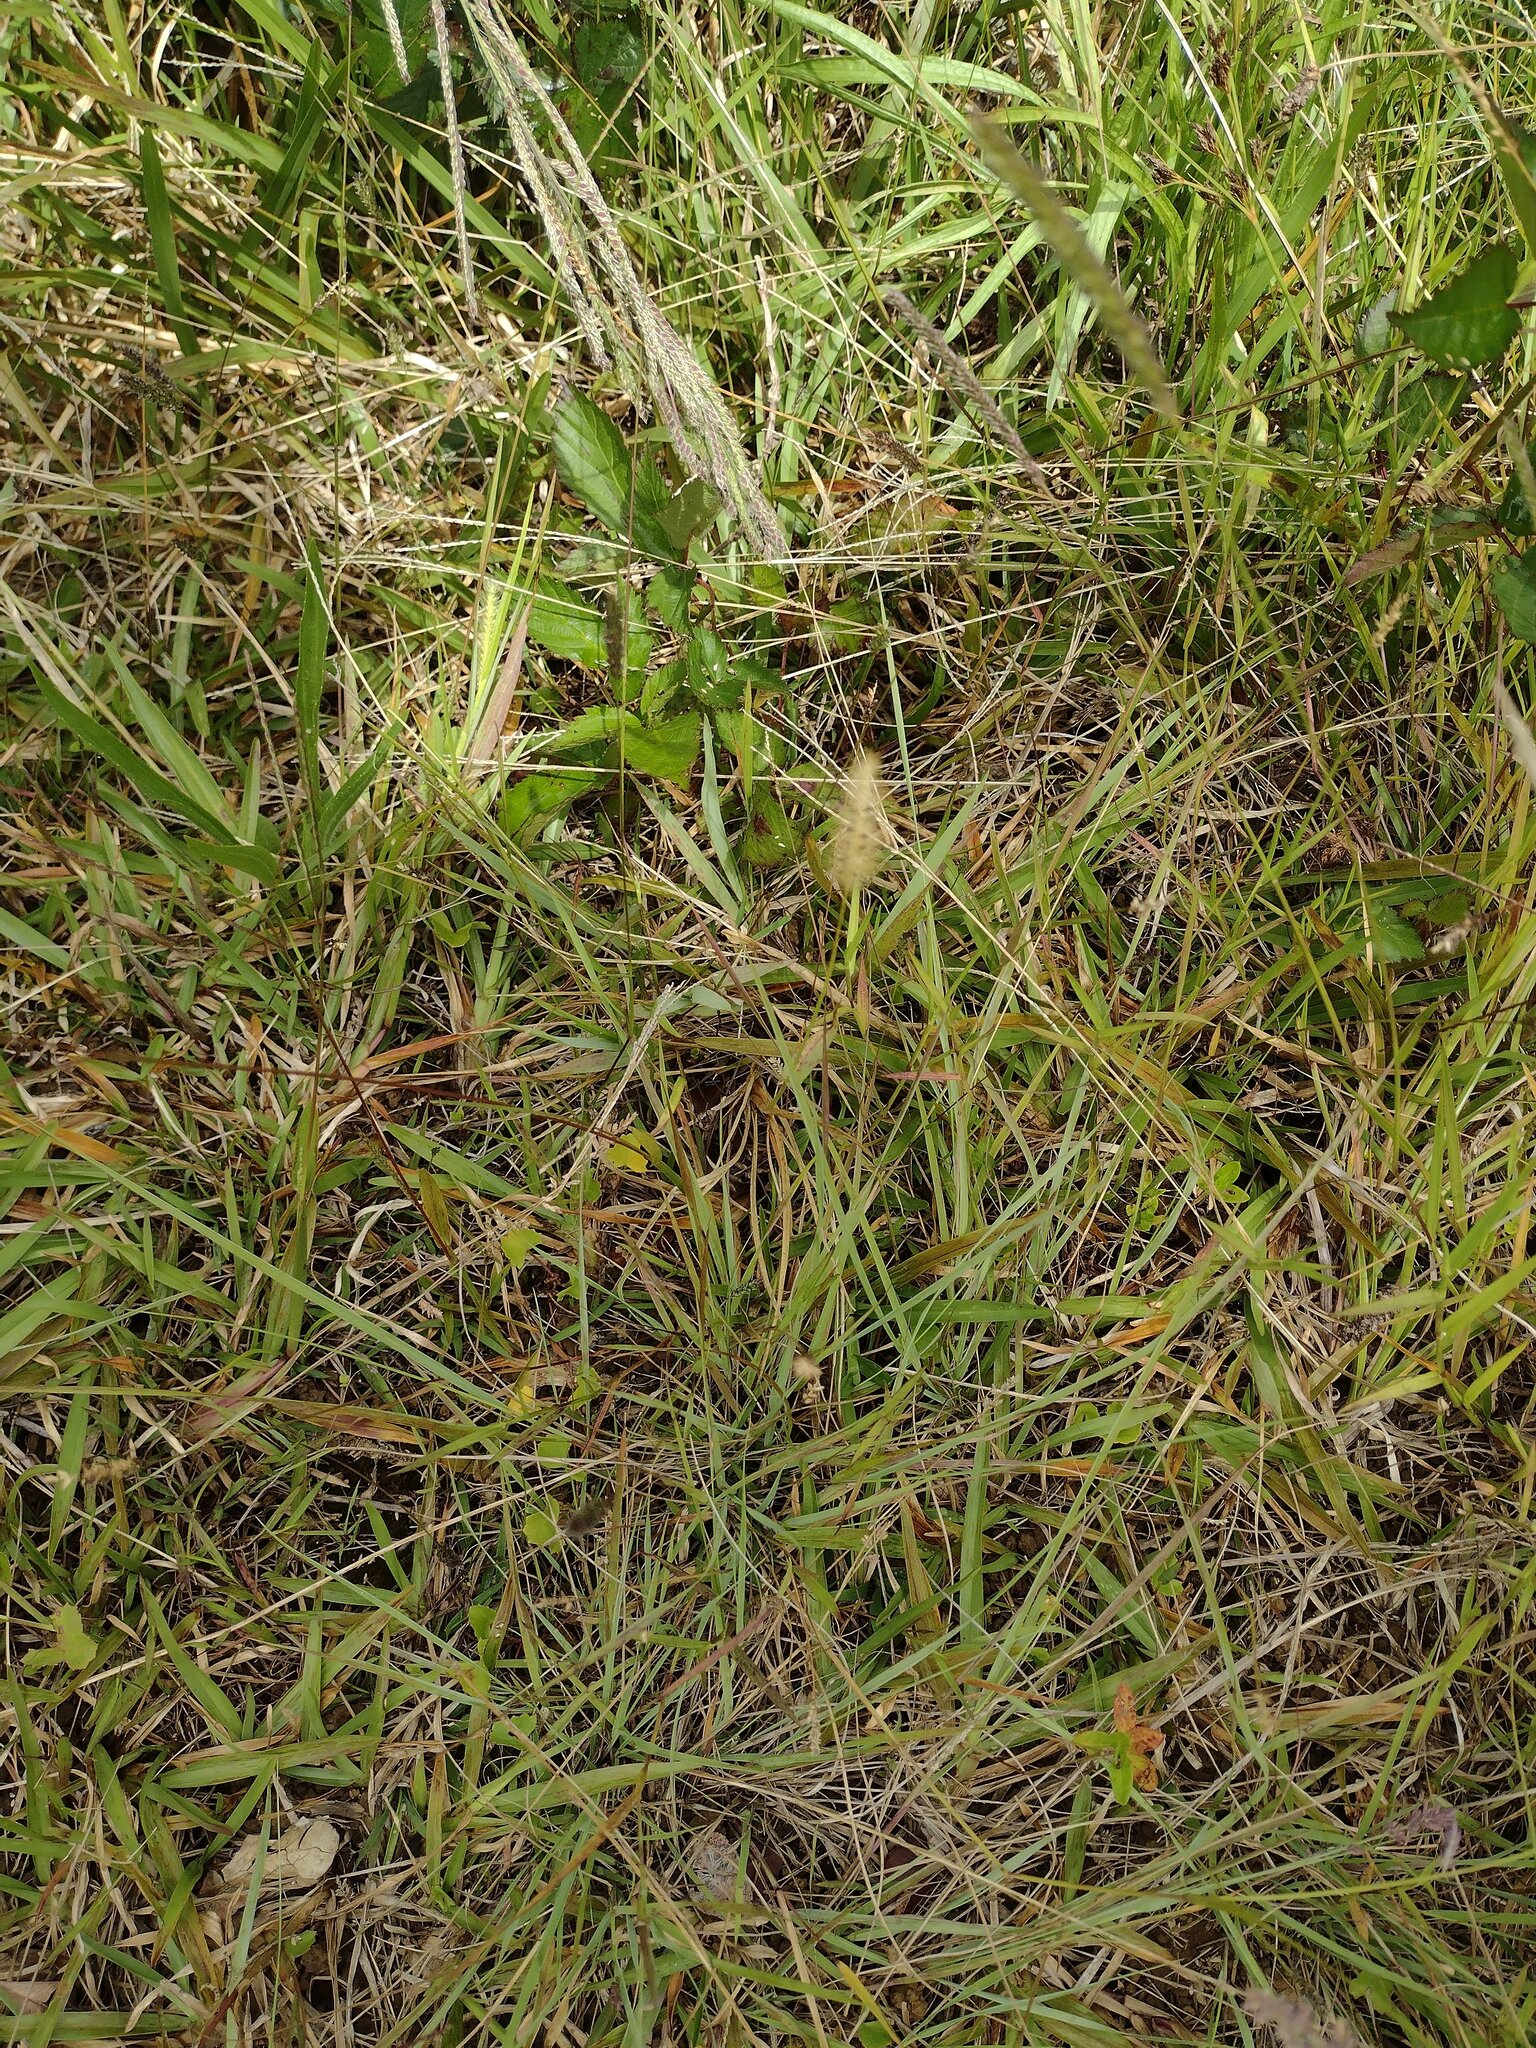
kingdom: Plantae
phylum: Tracheophyta
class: Liliopsida
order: Poales
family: Poaceae
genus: Setaria
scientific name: Setaria parviflora
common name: Knotroot bristle-grass
